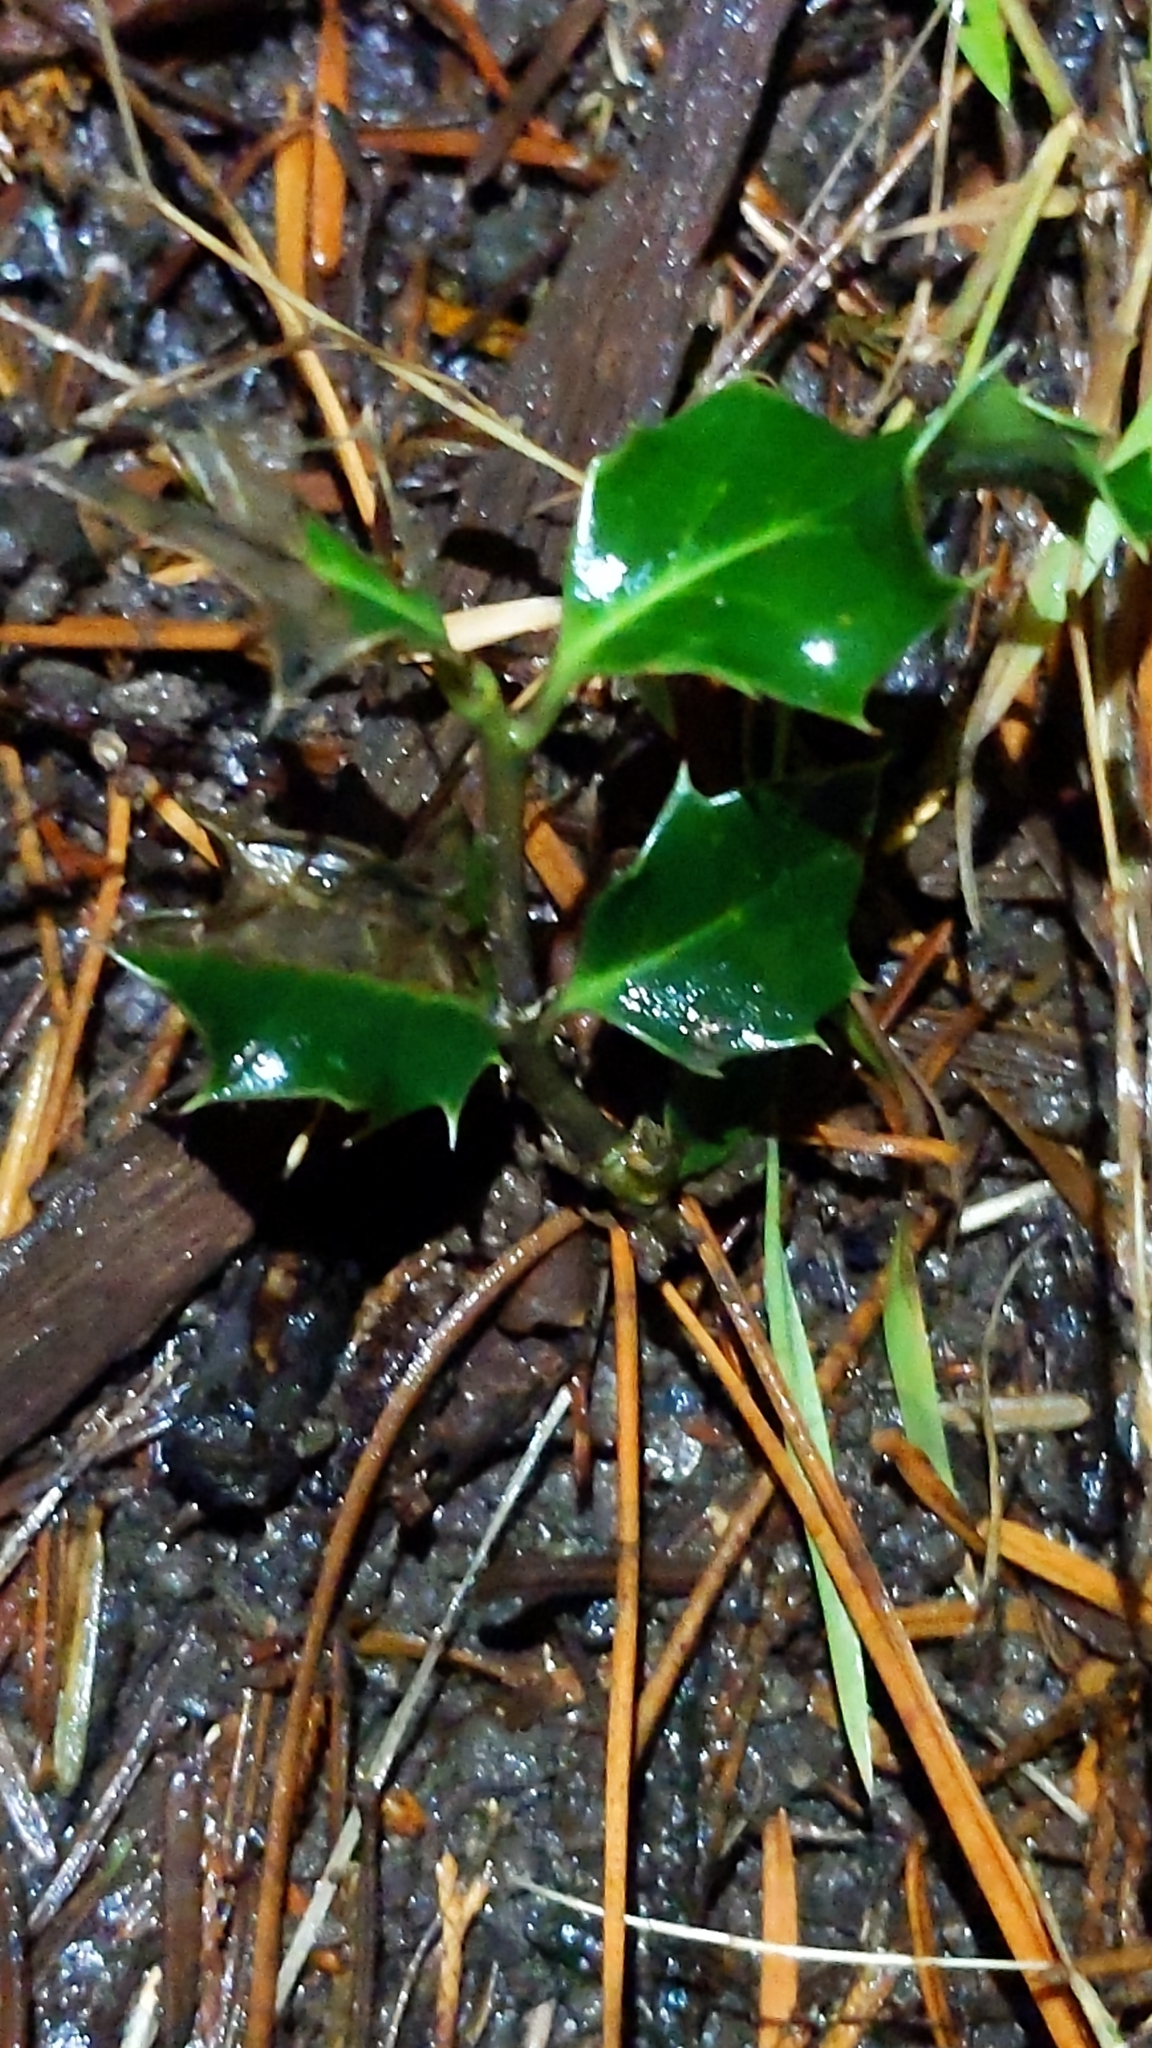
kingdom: Plantae
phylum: Tracheophyta
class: Magnoliopsida
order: Aquifoliales
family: Aquifoliaceae
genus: Ilex
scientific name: Ilex aquifolium
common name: English holly
